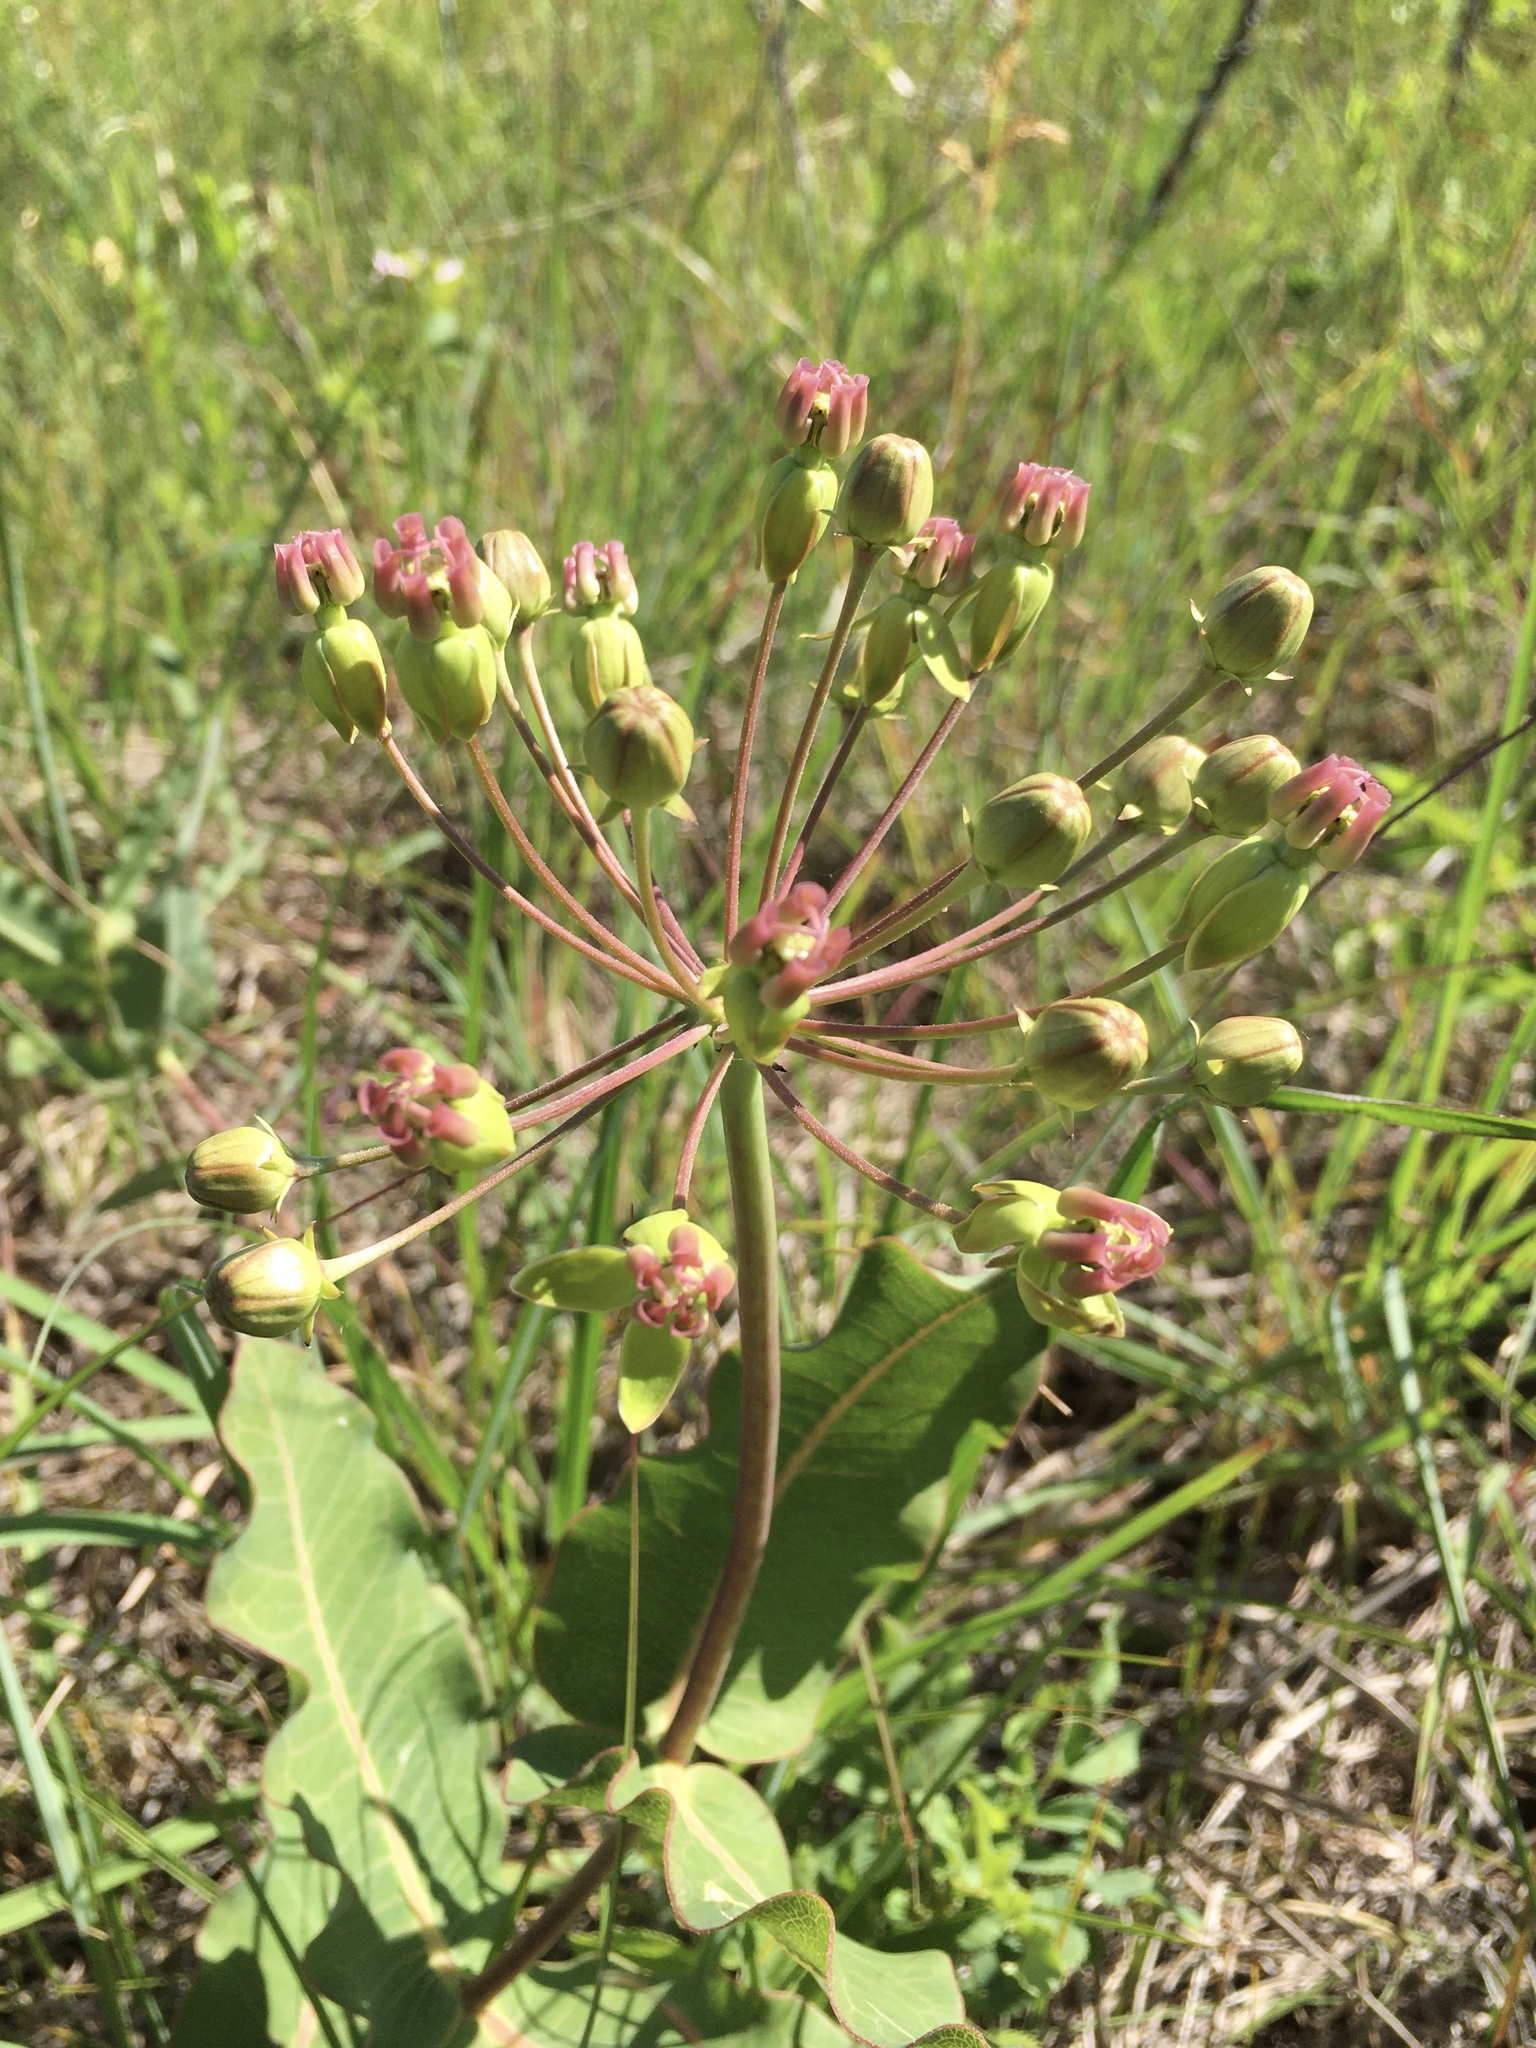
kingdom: Plantae
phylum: Tracheophyta
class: Magnoliopsida
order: Gentianales
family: Apocynaceae
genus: Asclepias
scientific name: Asclepias amplexicaulis
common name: Blunt-leaf milkweed
